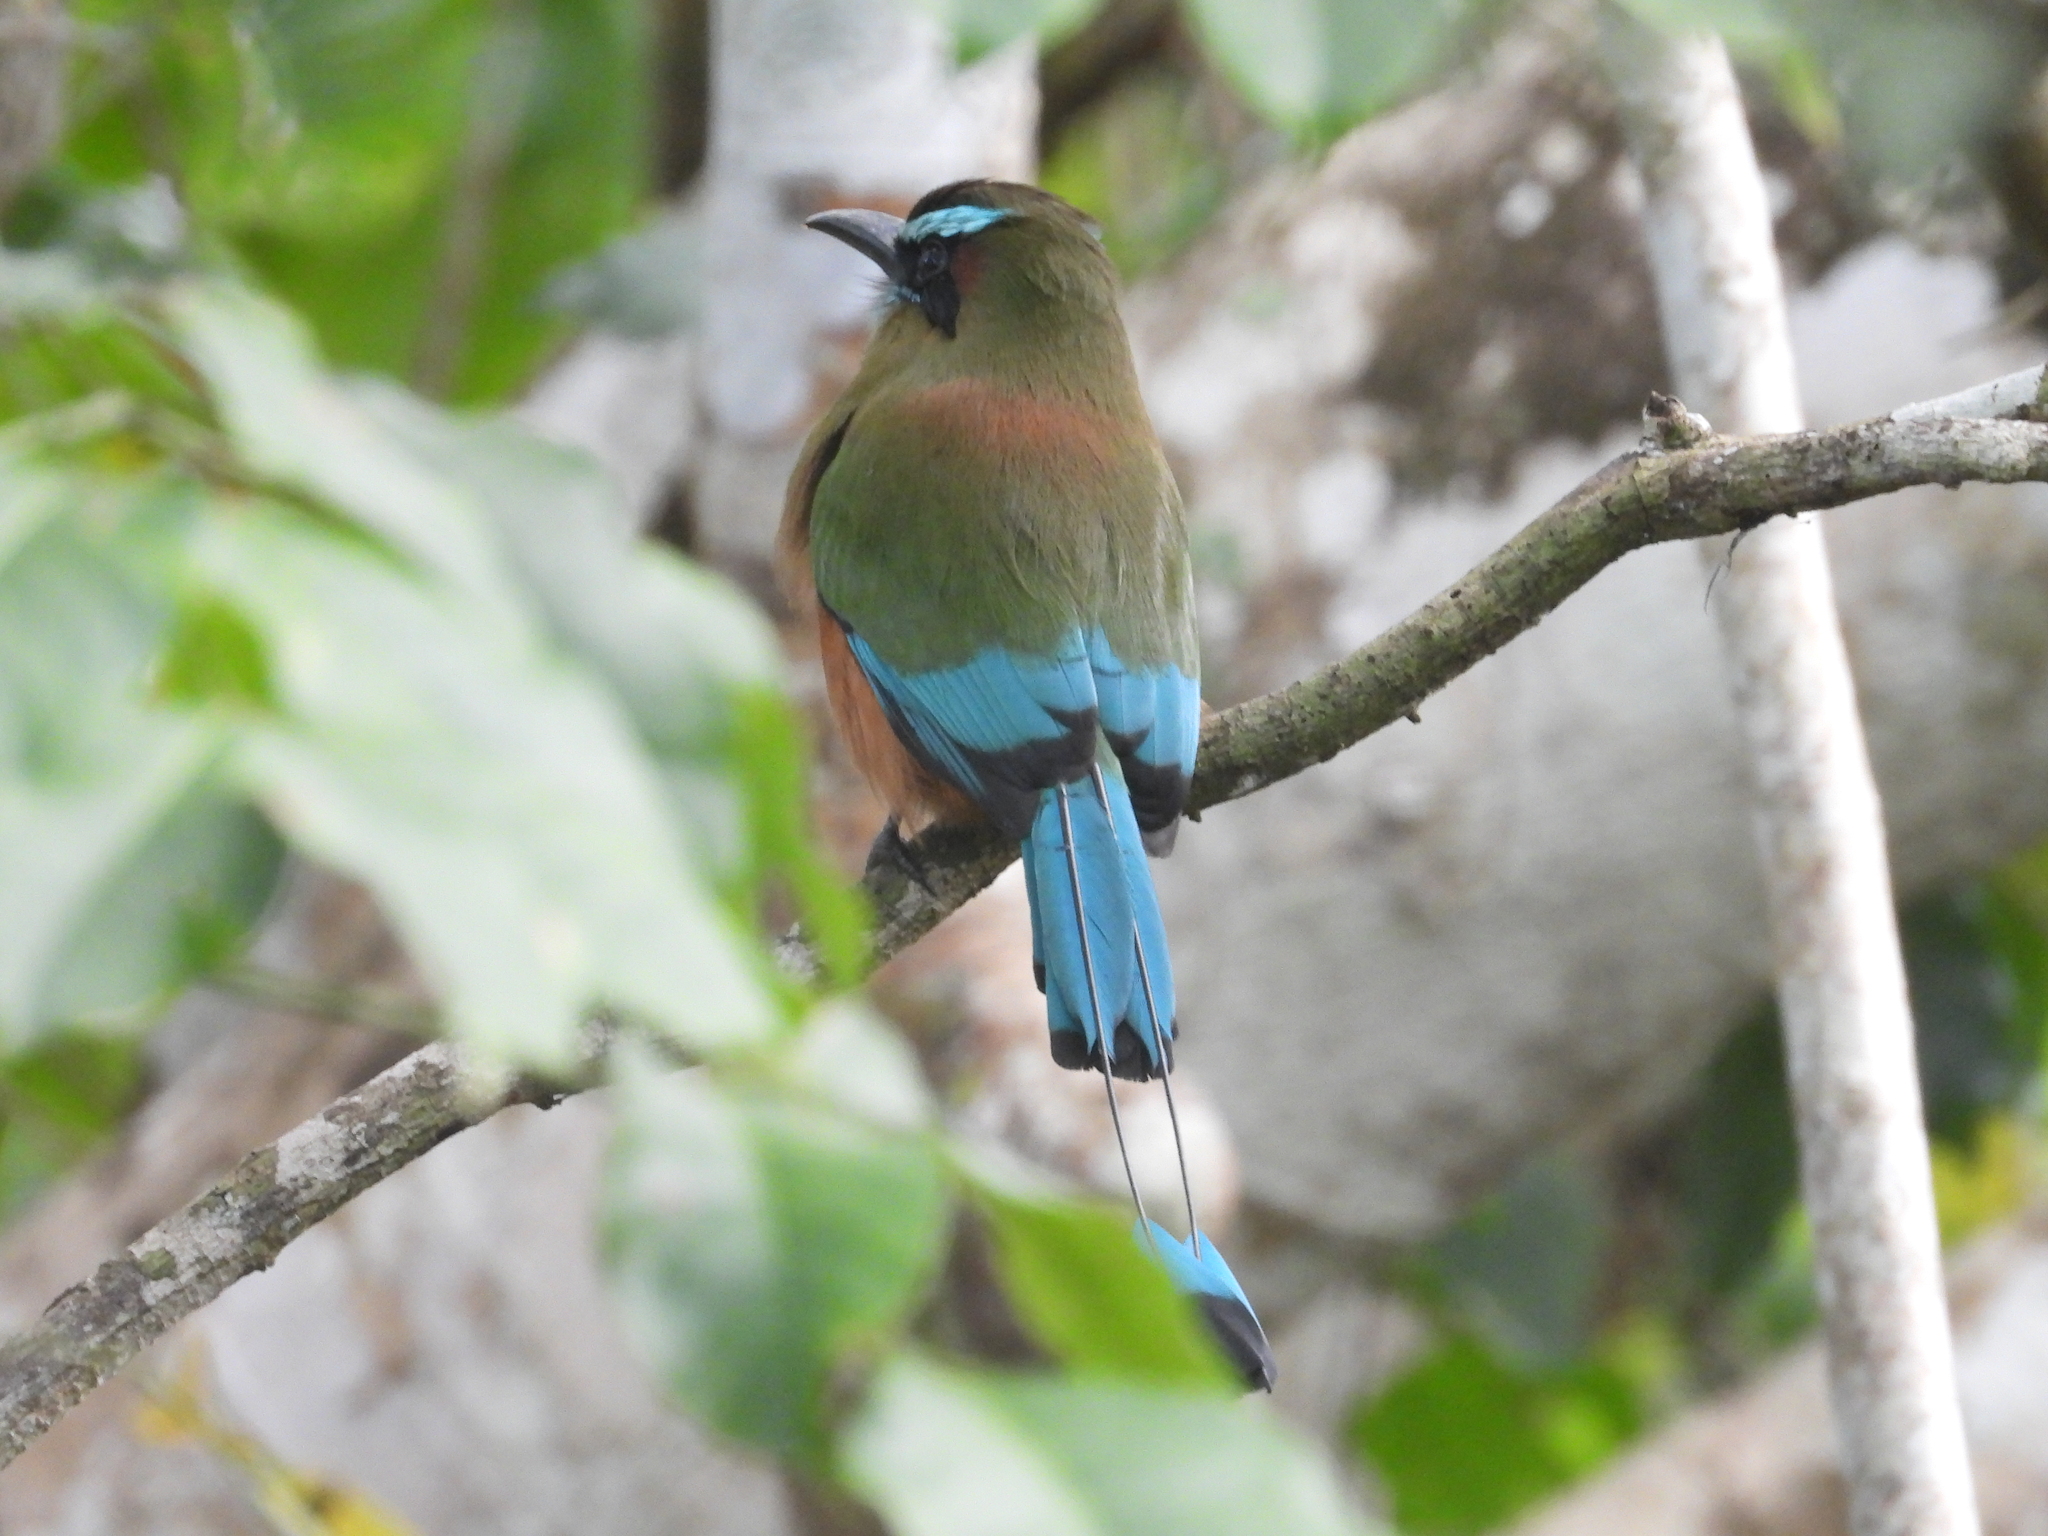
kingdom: Animalia
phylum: Chordata
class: Aves
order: Coraciiformes
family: Momotidae
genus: Eumomota
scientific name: Eumomota superciliosa
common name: Turquoise-browed motmot
